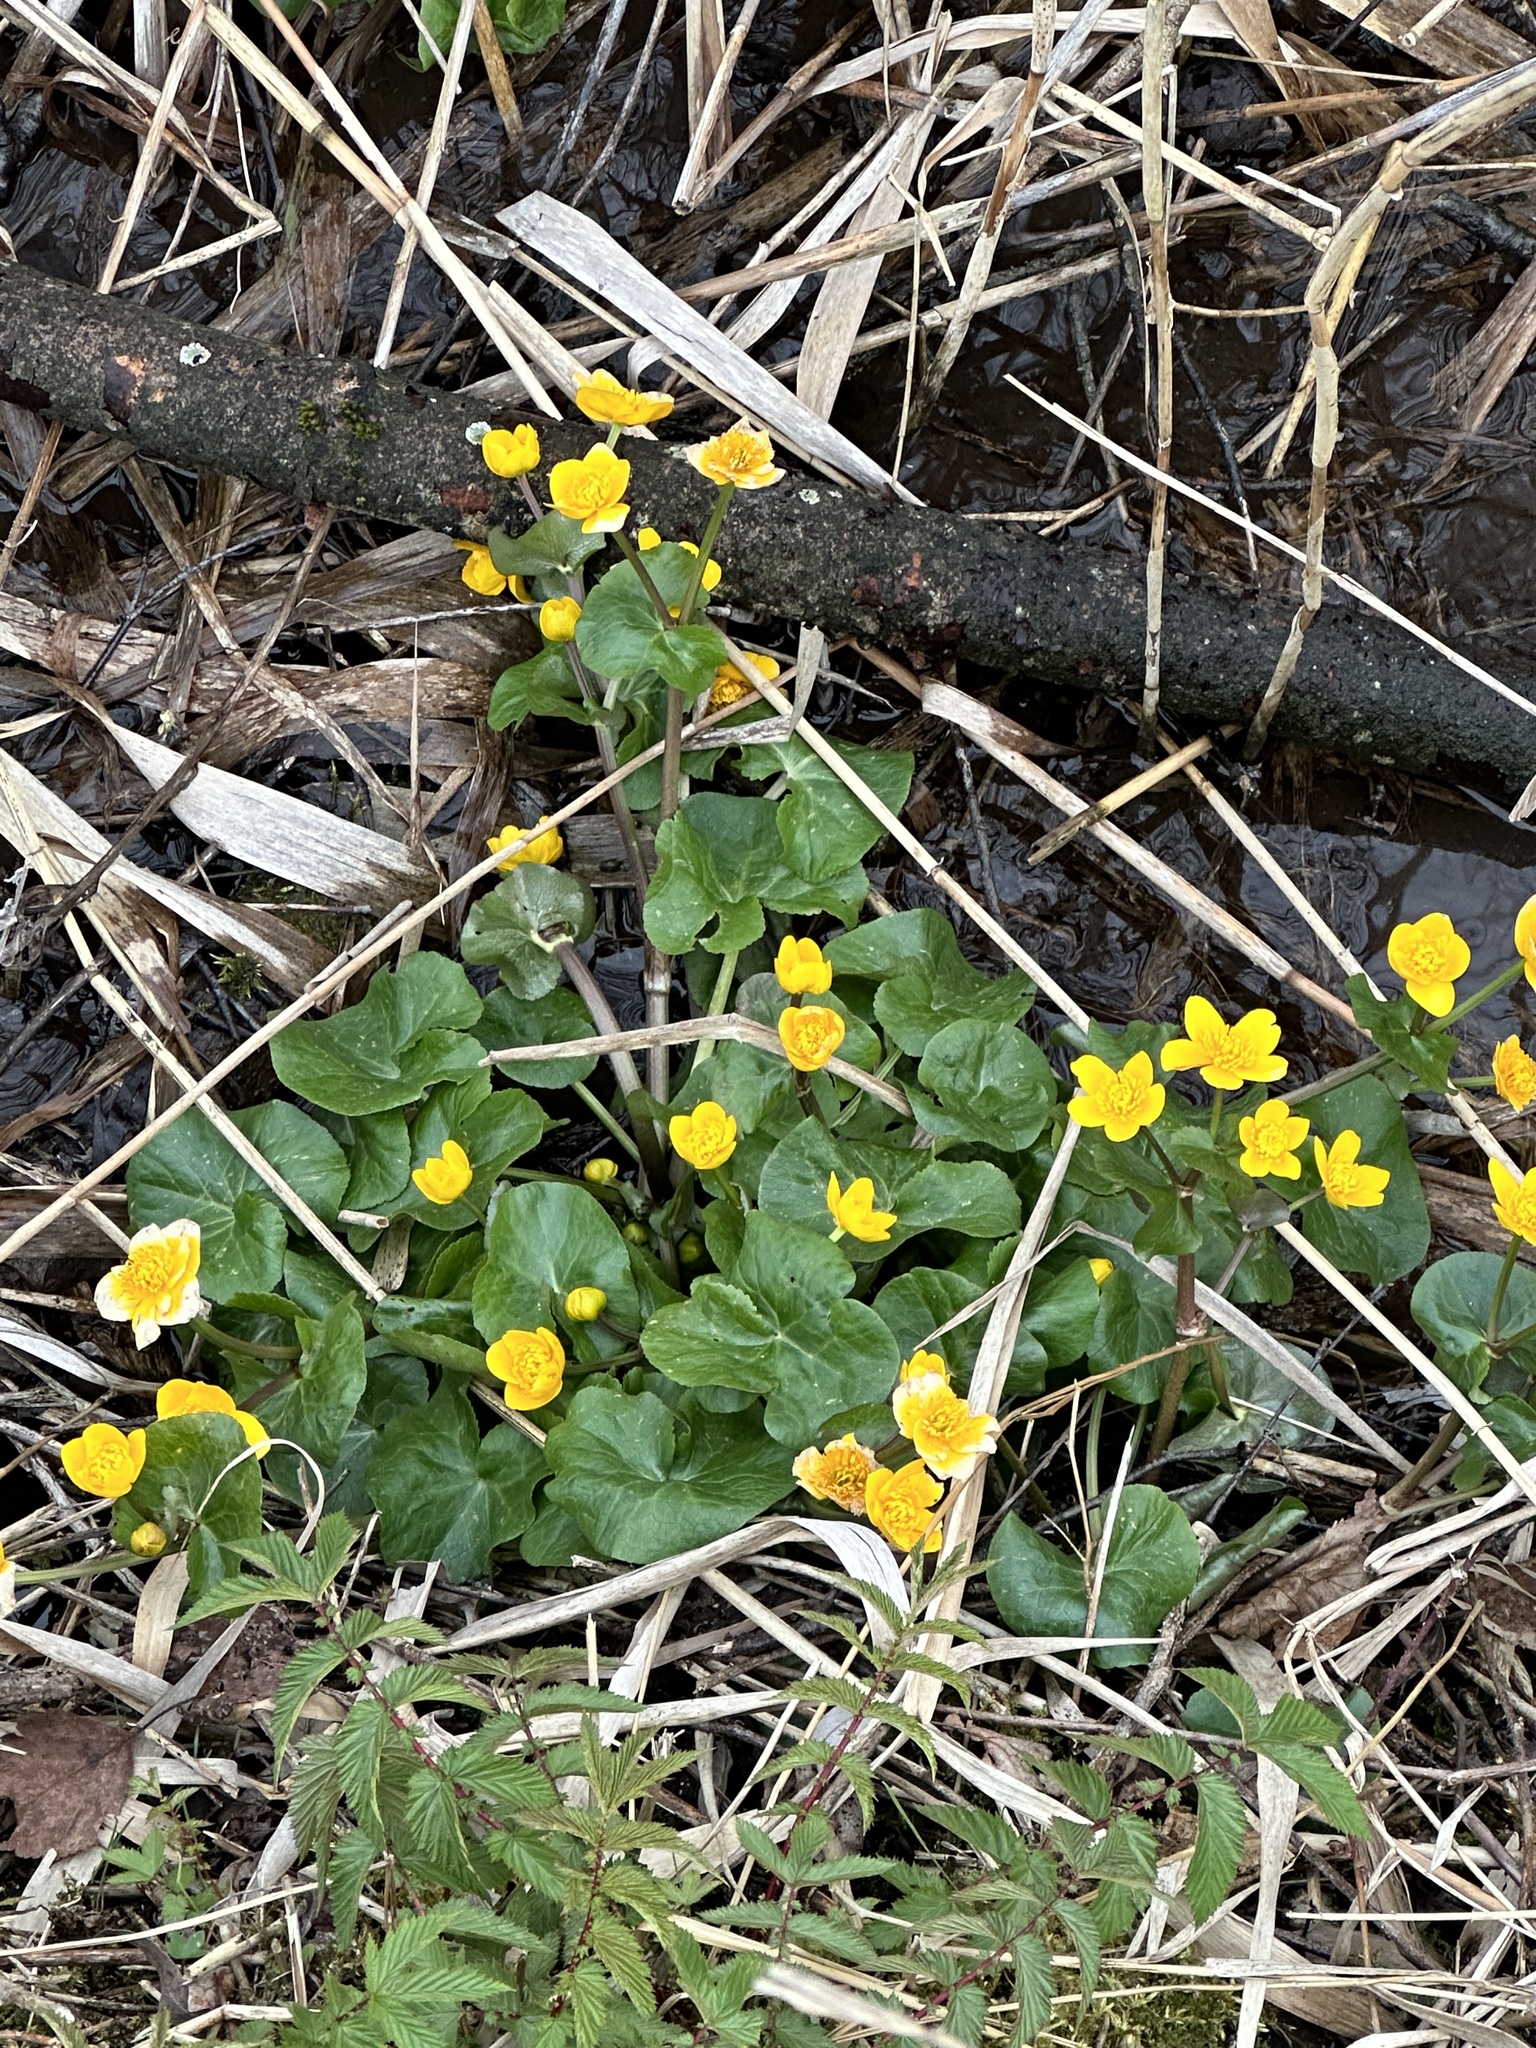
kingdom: Plantae
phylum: Tracheophyta
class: Magnoliopsida
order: Ranunculales
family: Ranunculaceae
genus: Caltha
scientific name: Caltha palustris
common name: Marsh marigold
